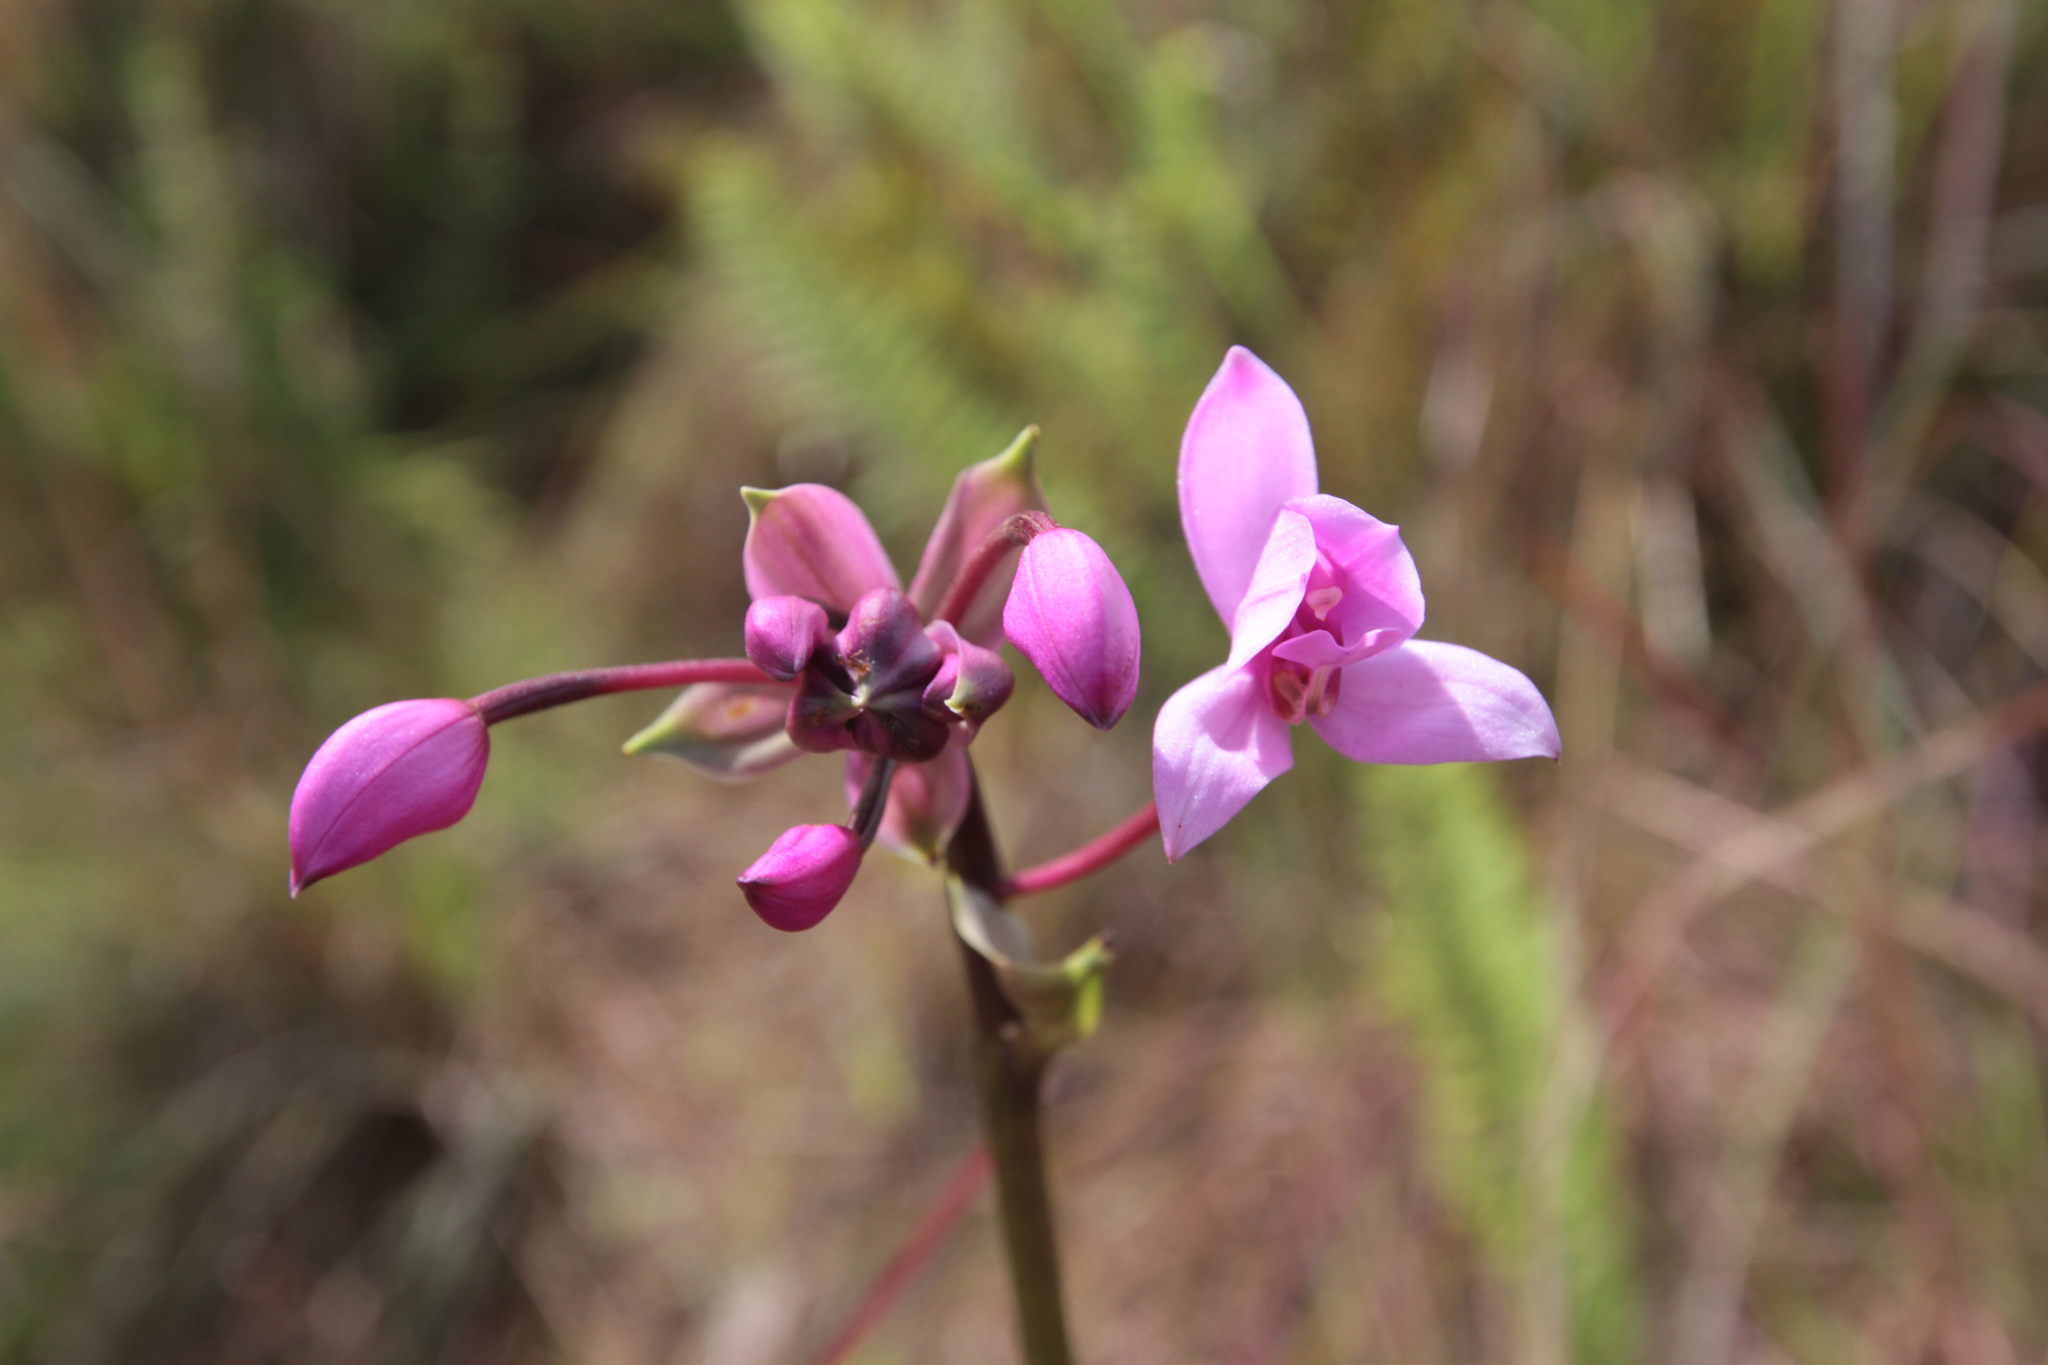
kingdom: Plantae
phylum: Tracheophyta
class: Liliopsida
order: Asparagales
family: Orchidaceae
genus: Spathoglottis
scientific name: Spathoglottis plicata
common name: Philippine ground orchid
